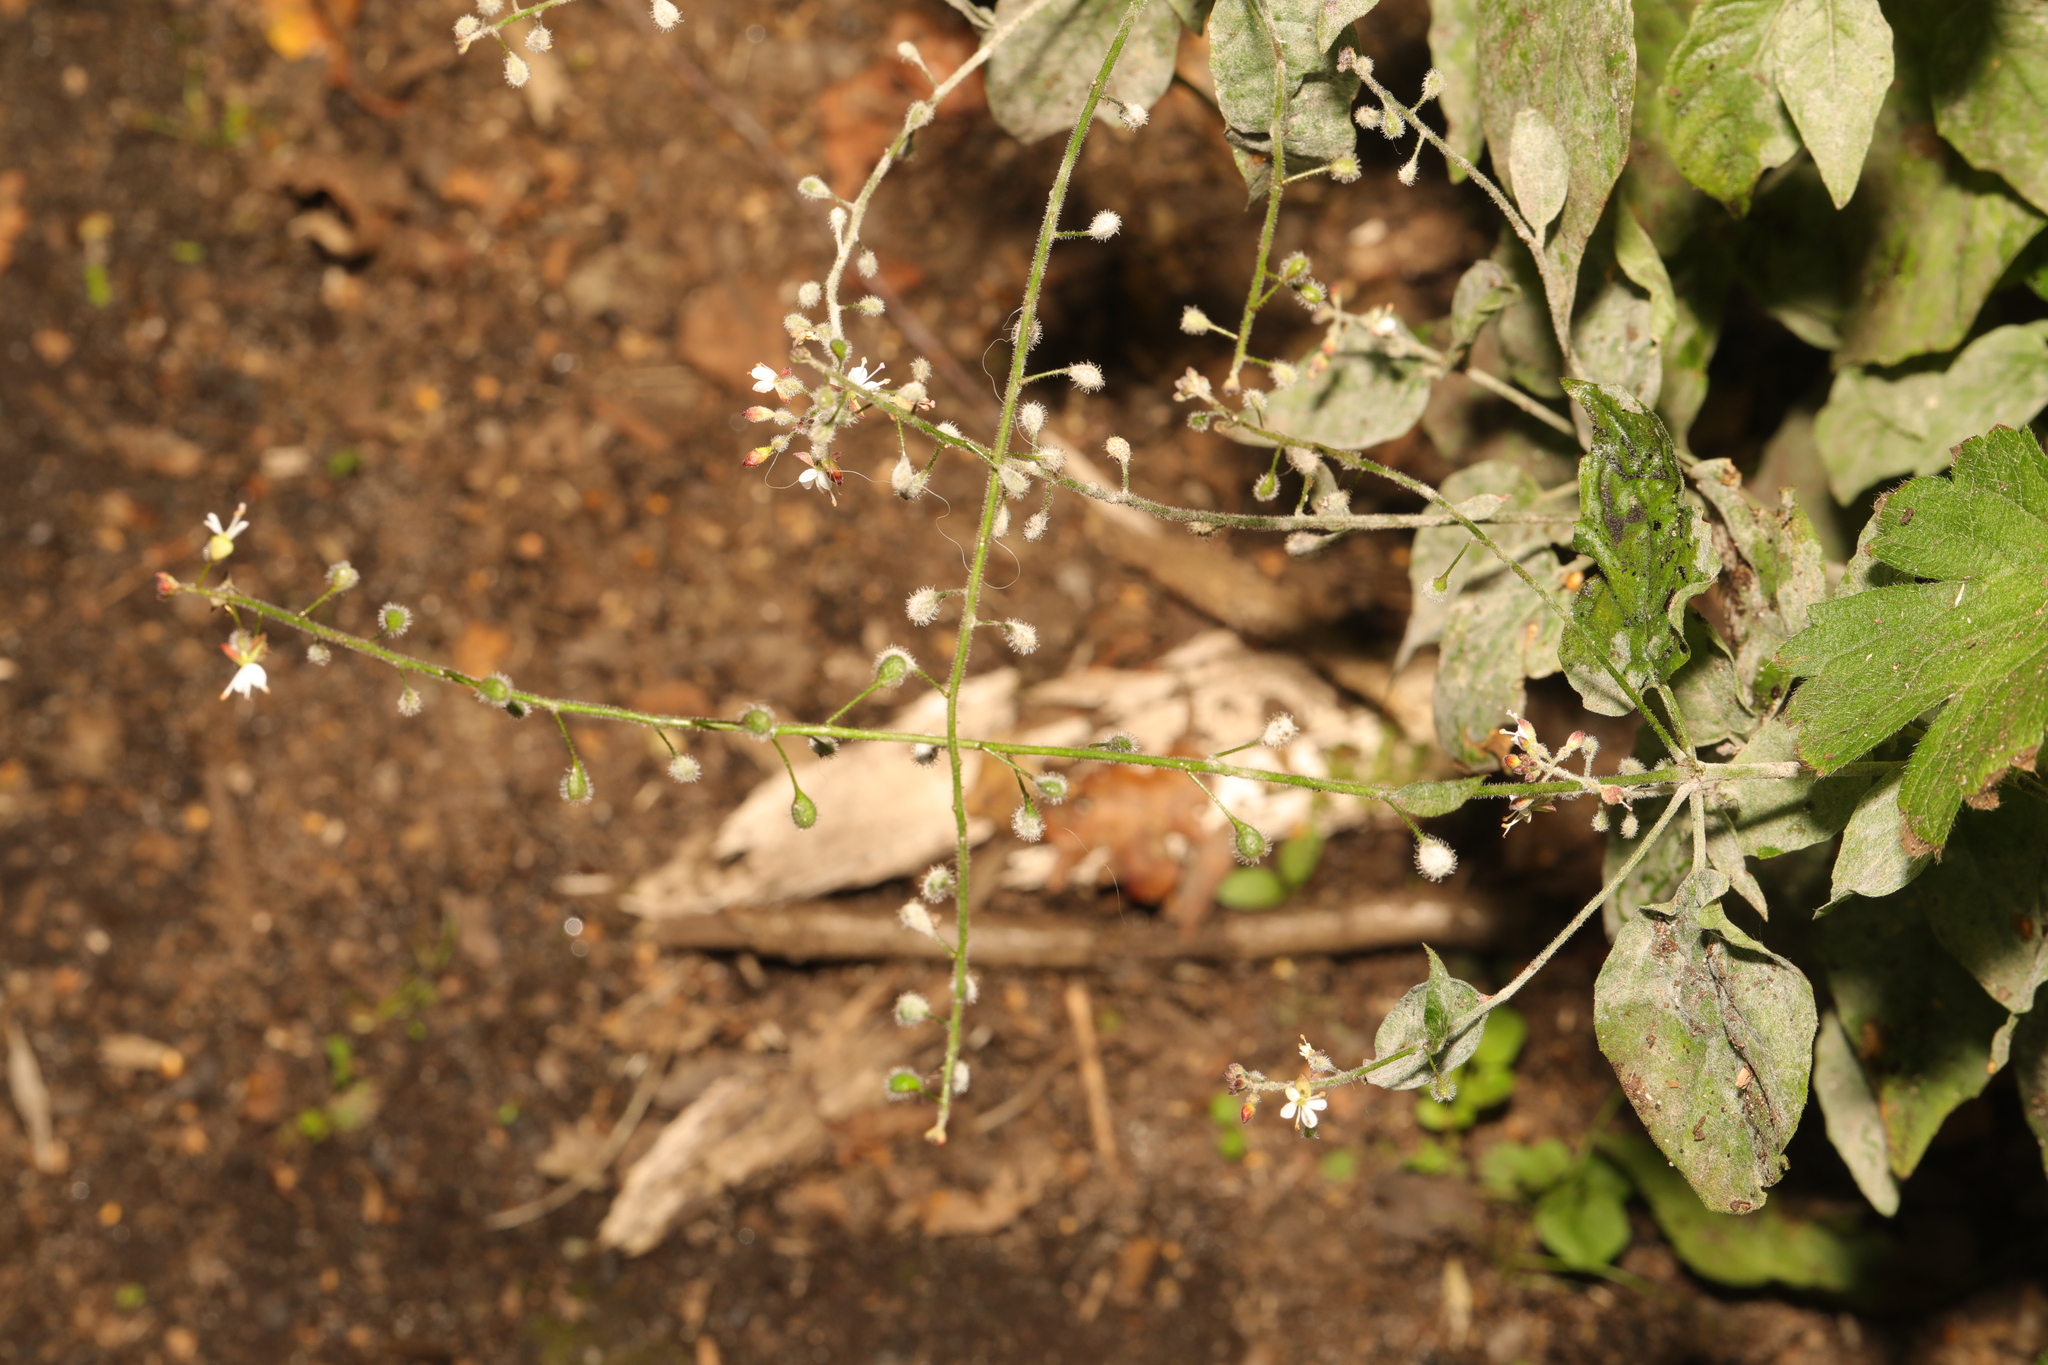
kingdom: Plantae
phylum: Tracheophyta
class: Magnoliopsida
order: Myrtales
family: Onagraceae
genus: Circaea
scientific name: Circaea lutetiana
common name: Enchanter's-nightshade
